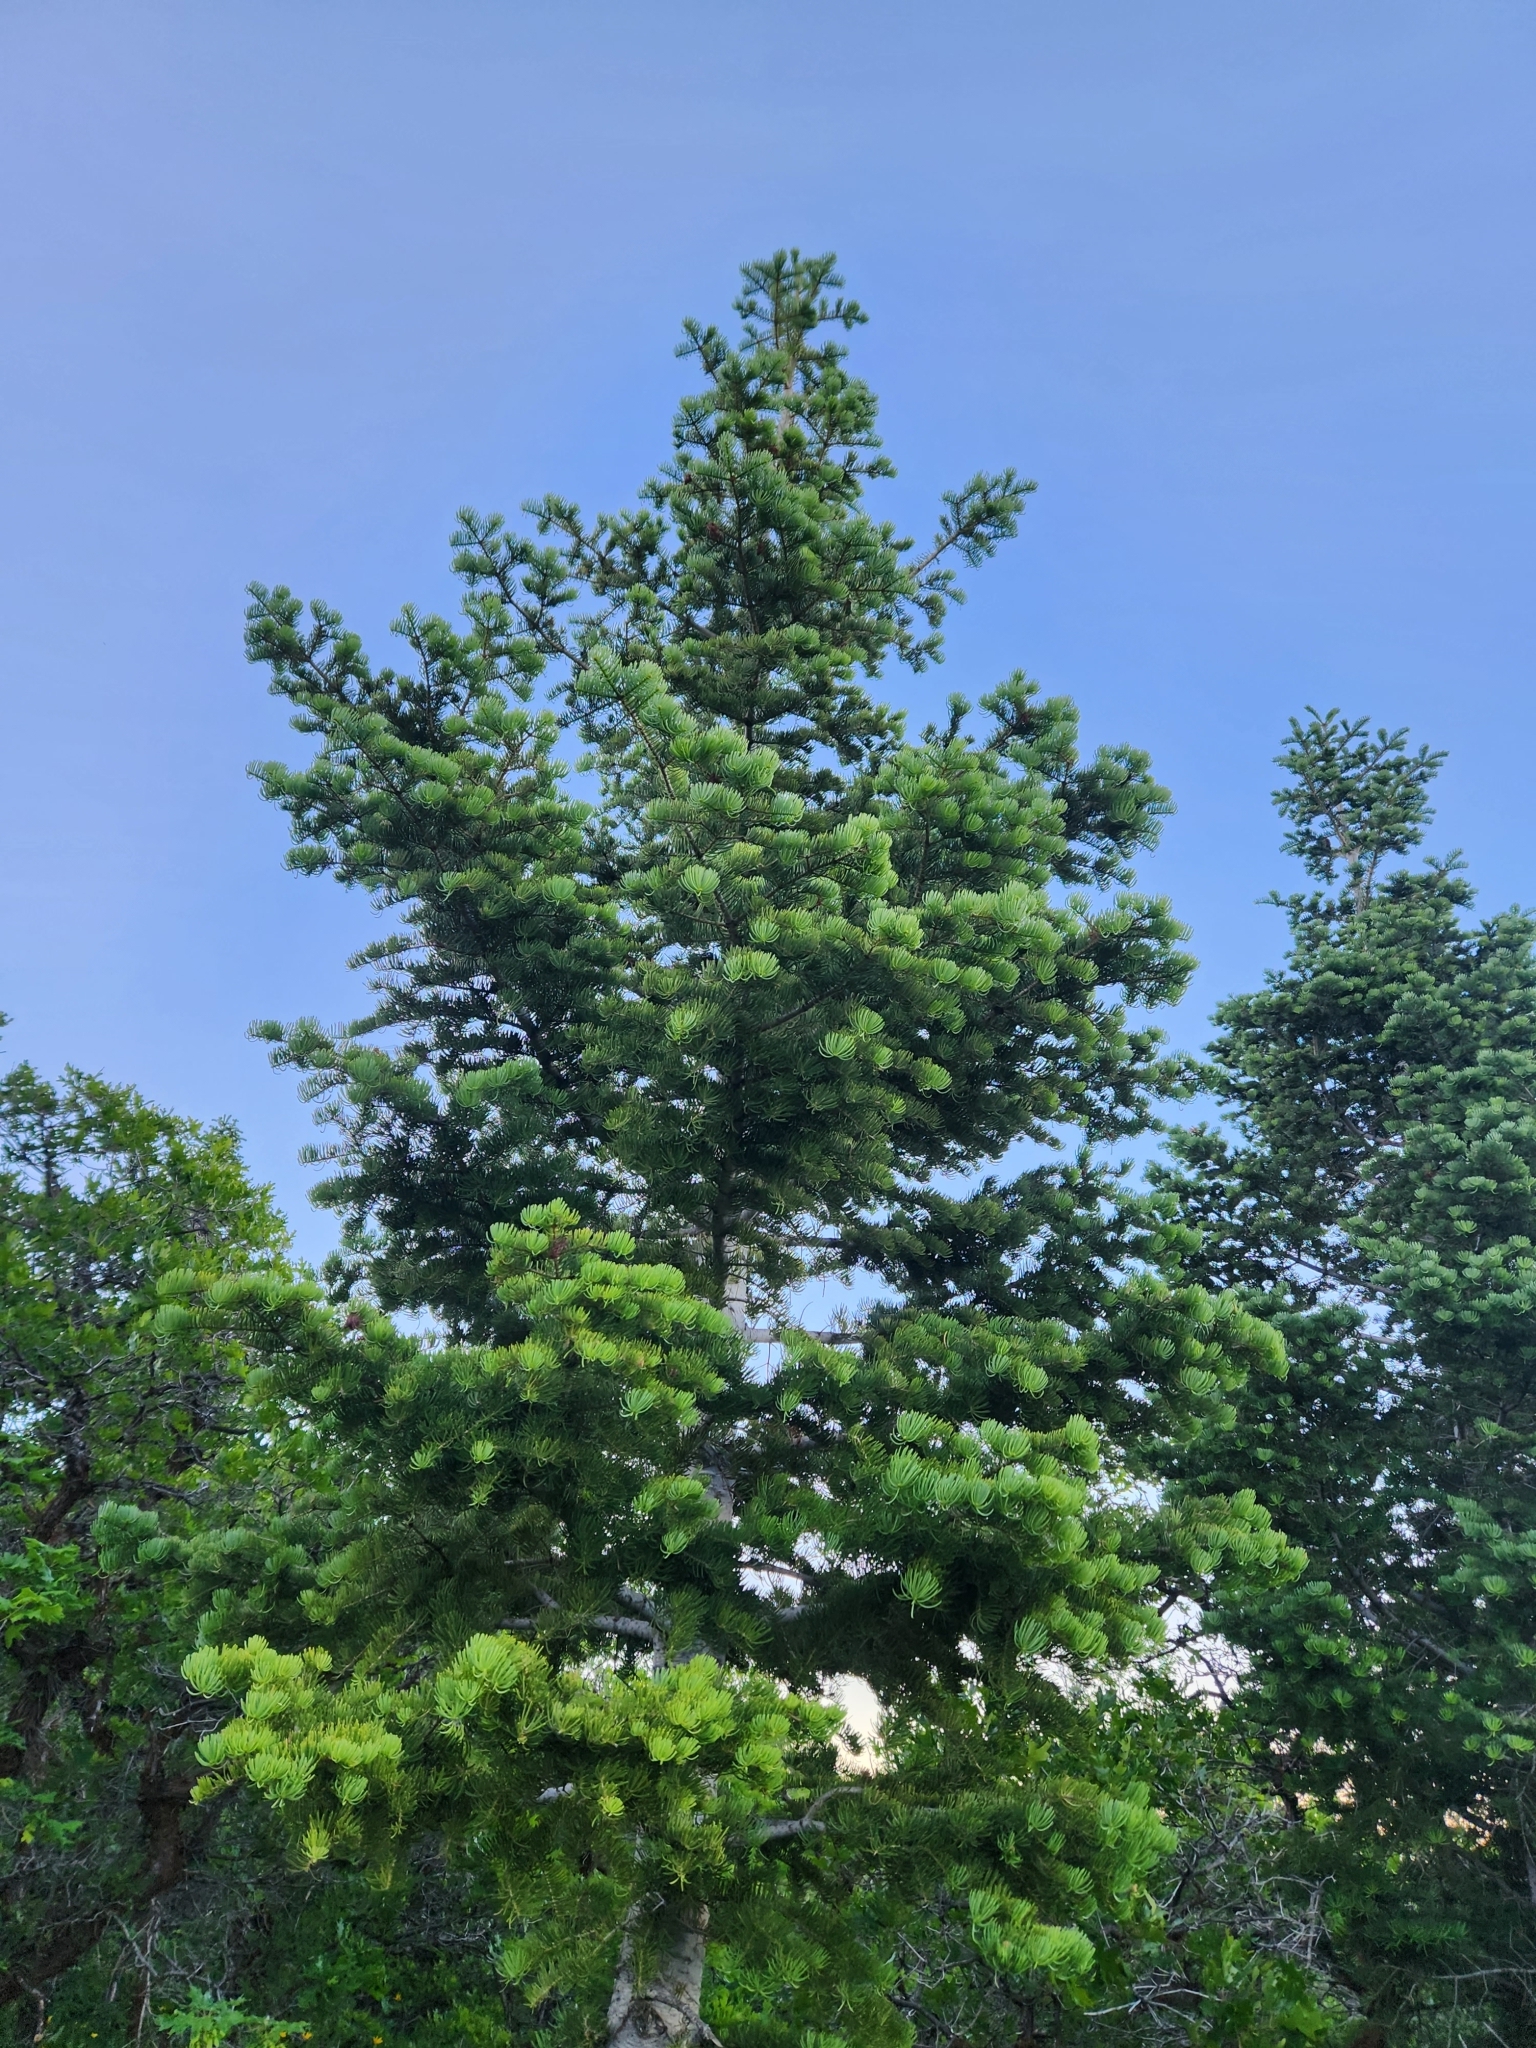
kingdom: Plantae
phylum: Tracheophyta
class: Pinopsida
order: Pinales
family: Pinaceae
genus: Pseudotsuga
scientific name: Pseudotsuga menziesii
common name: Douglas fir
